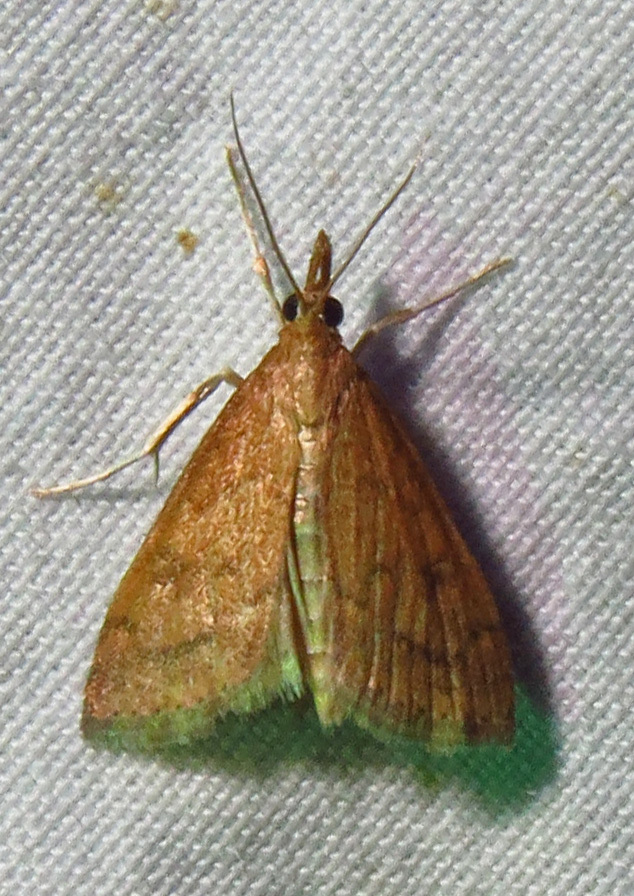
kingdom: Animalia
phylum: Arthropoda
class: Insecta
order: Lepidoptera
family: Crambidae
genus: Udea
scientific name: Udea rubigalis
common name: Celery leaftier moth
